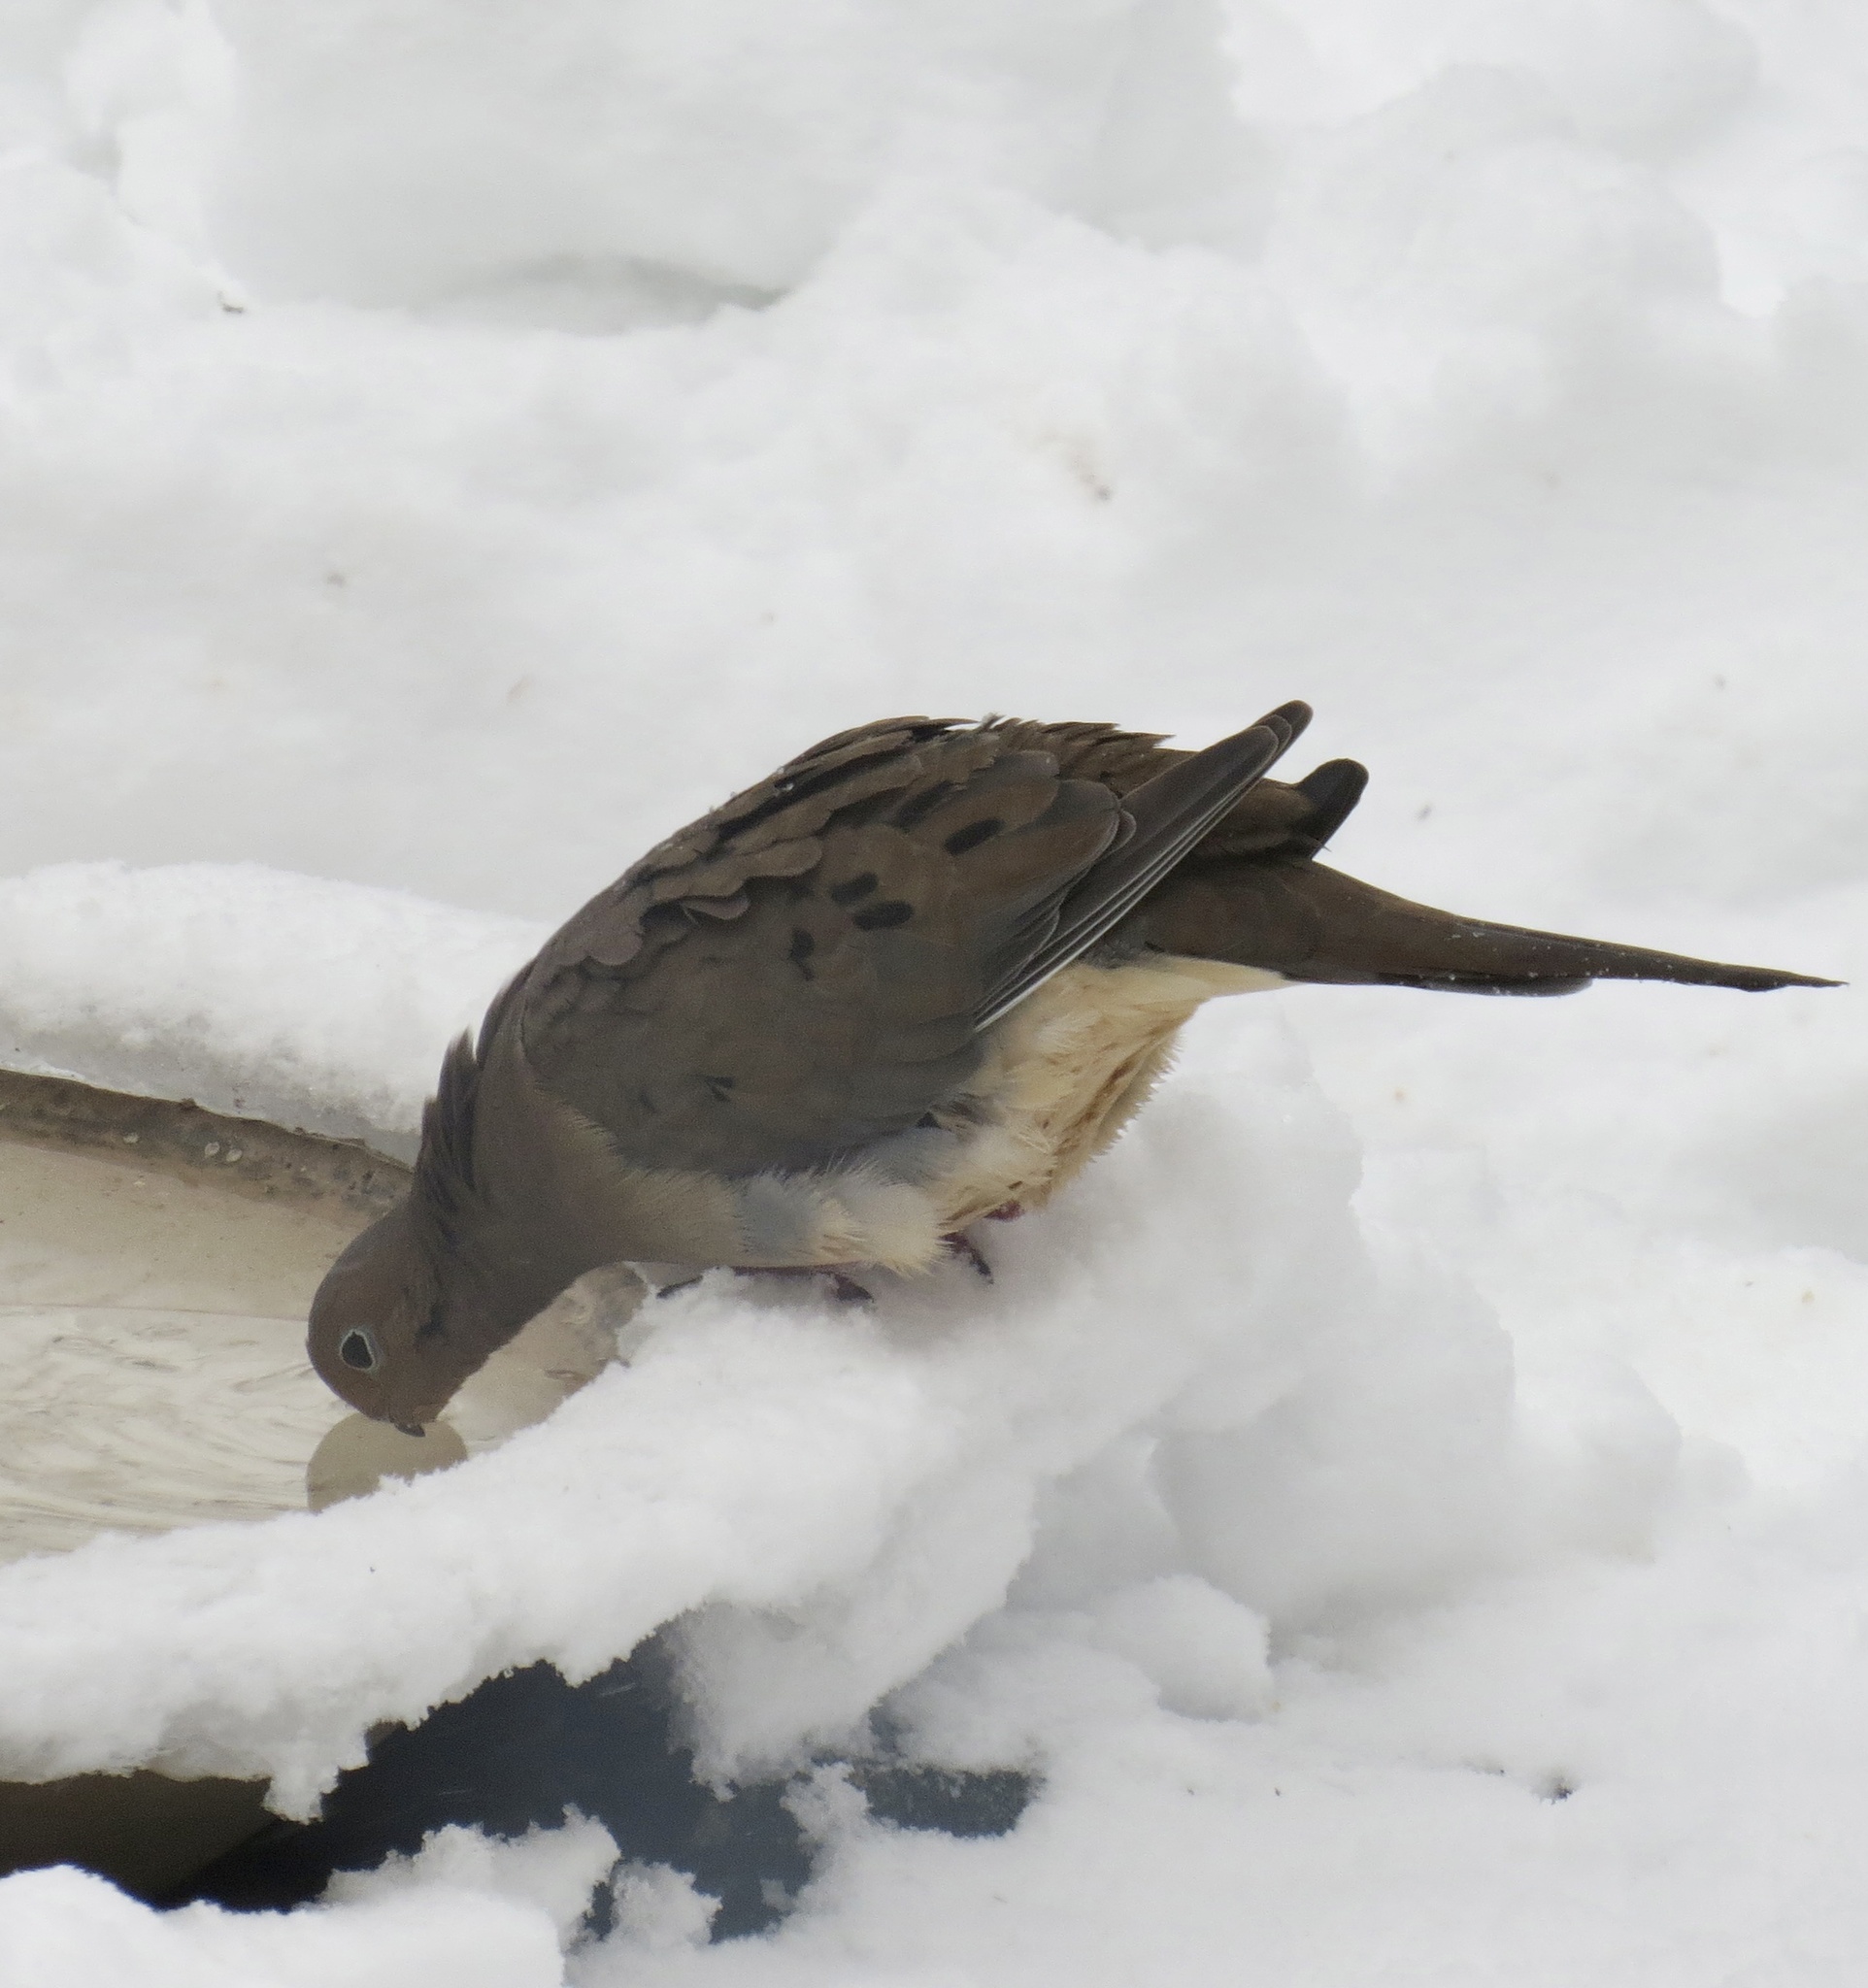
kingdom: Animalia
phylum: Chordata
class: Aves
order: Columbiformes
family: Columbidae
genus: Zenaida
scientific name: Zenaida macroura
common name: Mourning dove
